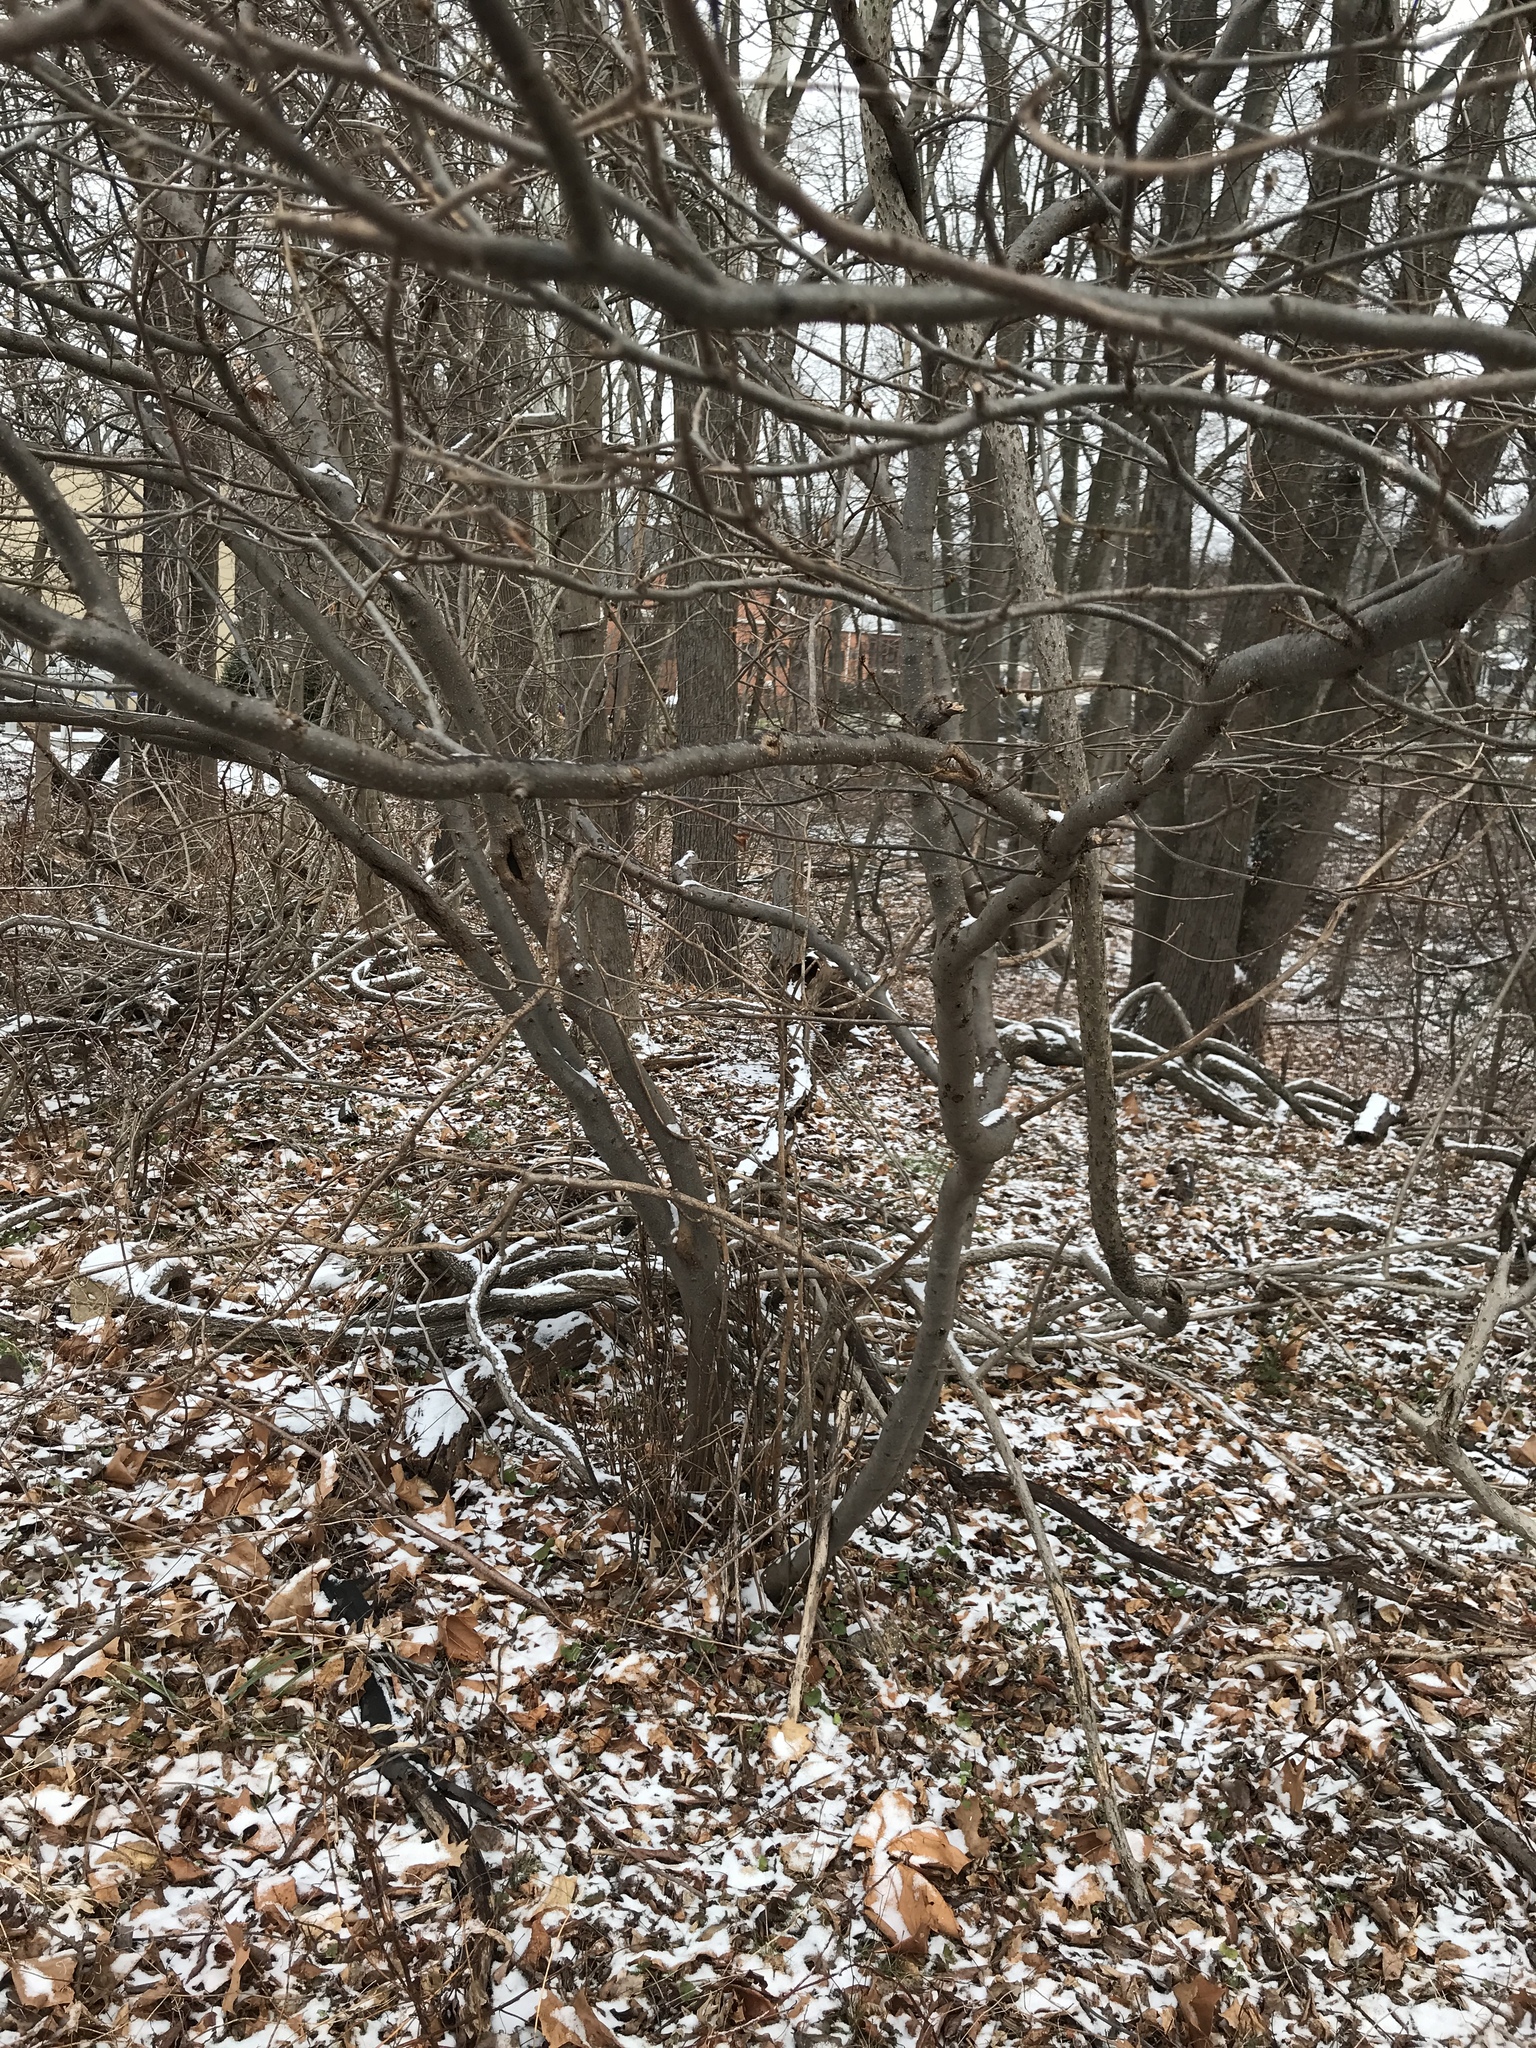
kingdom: Plantae
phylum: Tracheophyta
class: Magnoliopsida
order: Laurales
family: Lauraceae
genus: Lindera
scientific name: Lindera benzoin
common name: Spicebush
